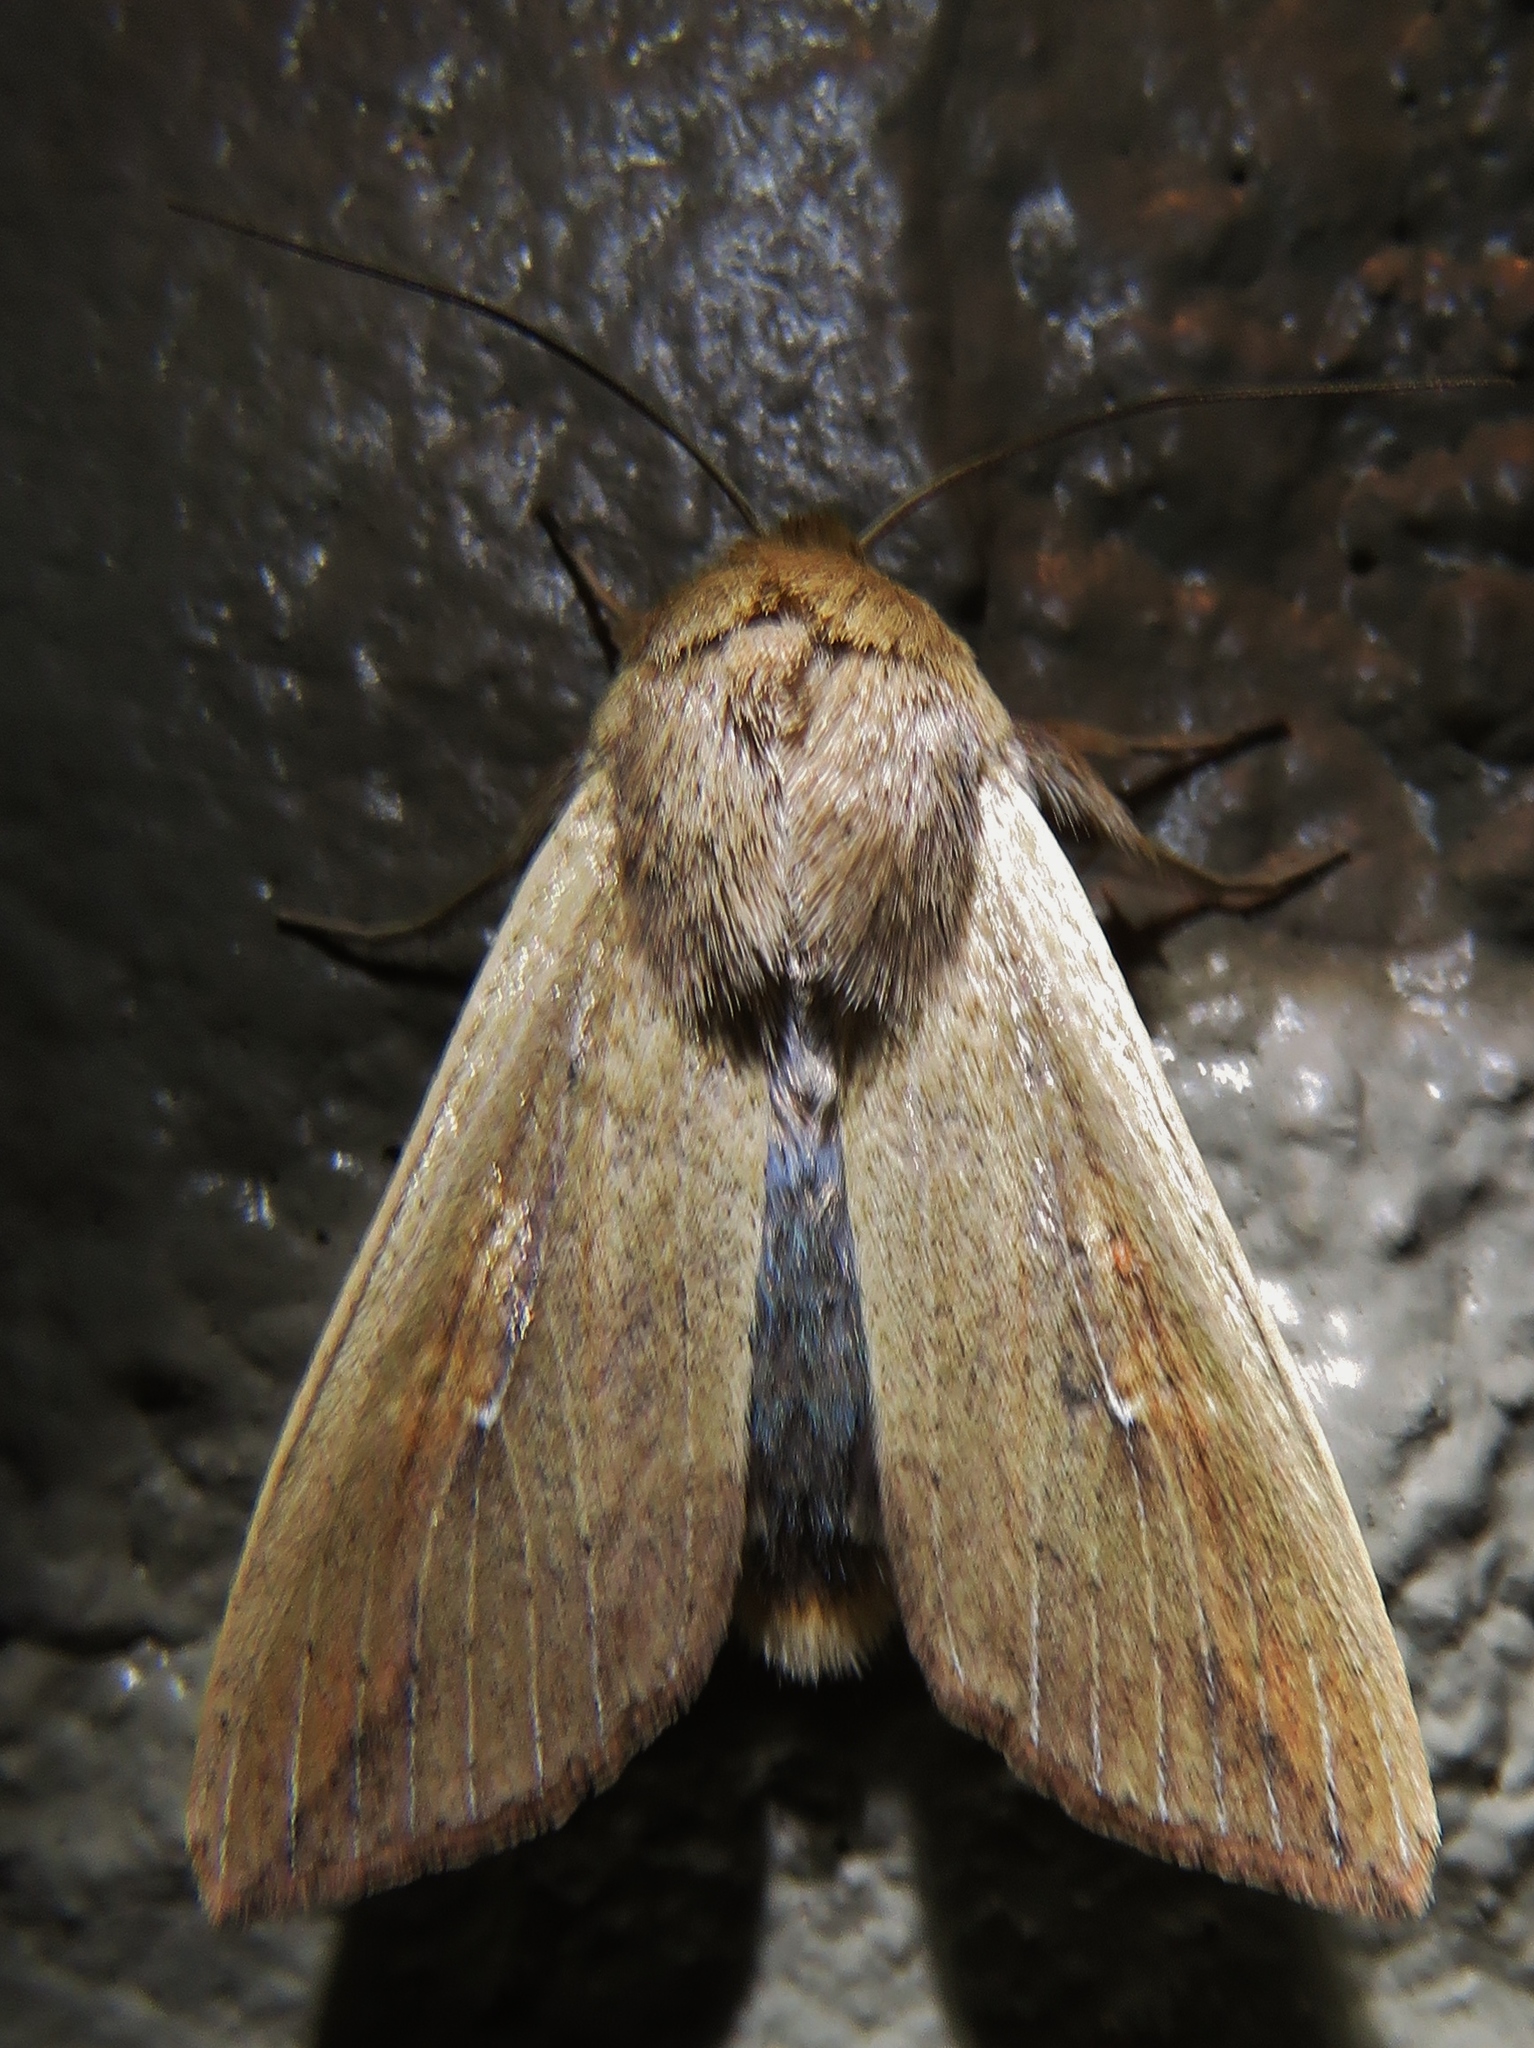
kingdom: Animalia
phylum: Arthropoda
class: Insecta
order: Lepidoptera
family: Noctuidae
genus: Mythimna
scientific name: Mythimna unipuncta
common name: White-speck
